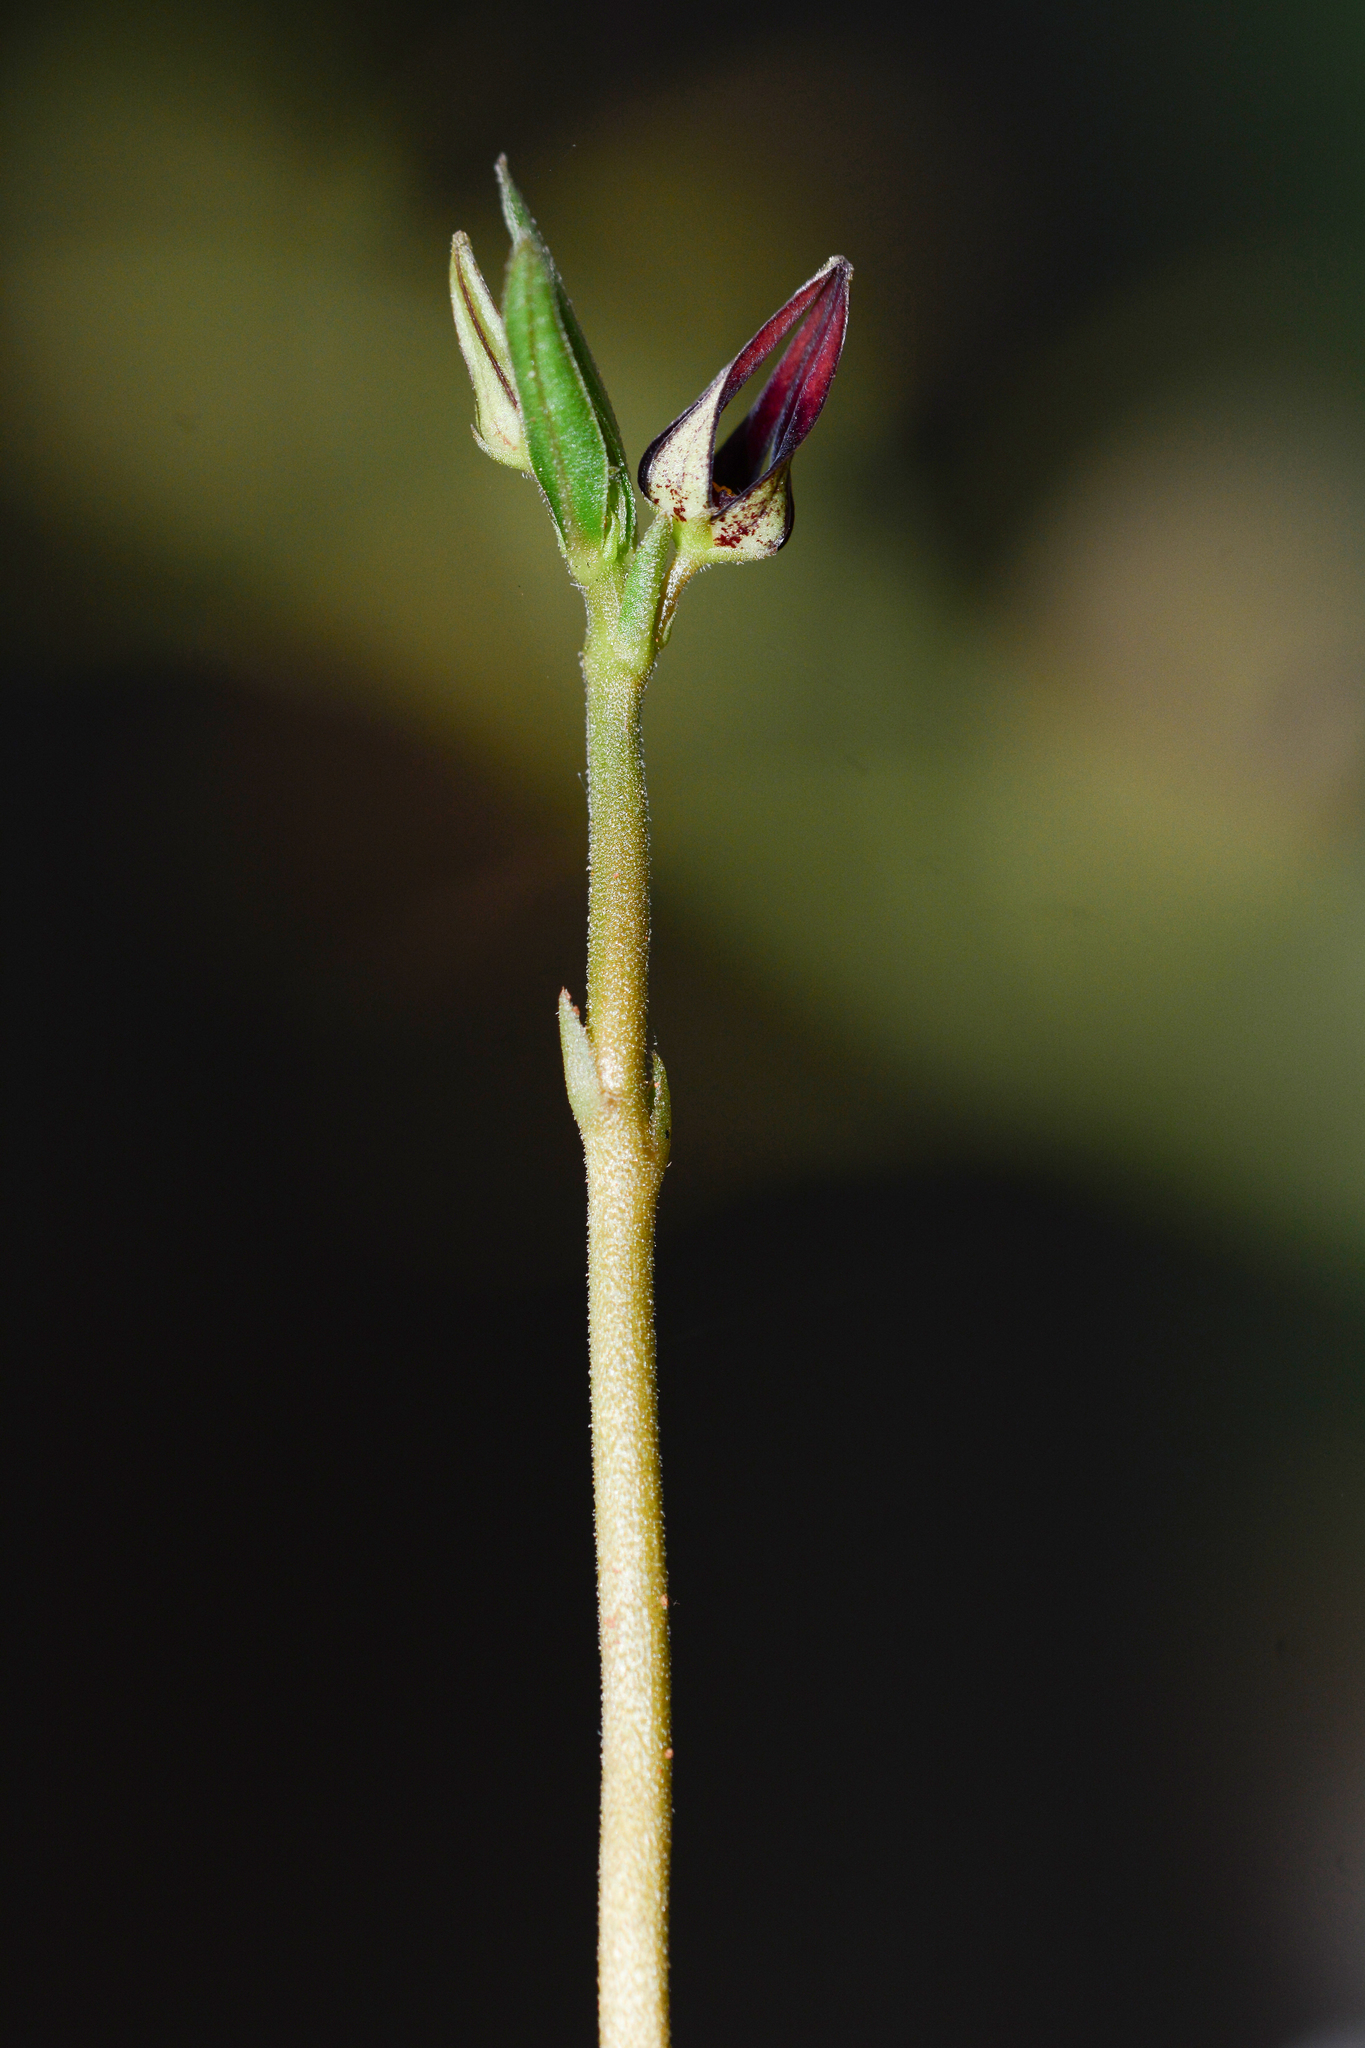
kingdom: Plantae
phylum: Tracheophyta
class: Magnoliopsida
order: Gentianales
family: Apocynaceae
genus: Ceropegia
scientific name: Ceropegia shrirangii
